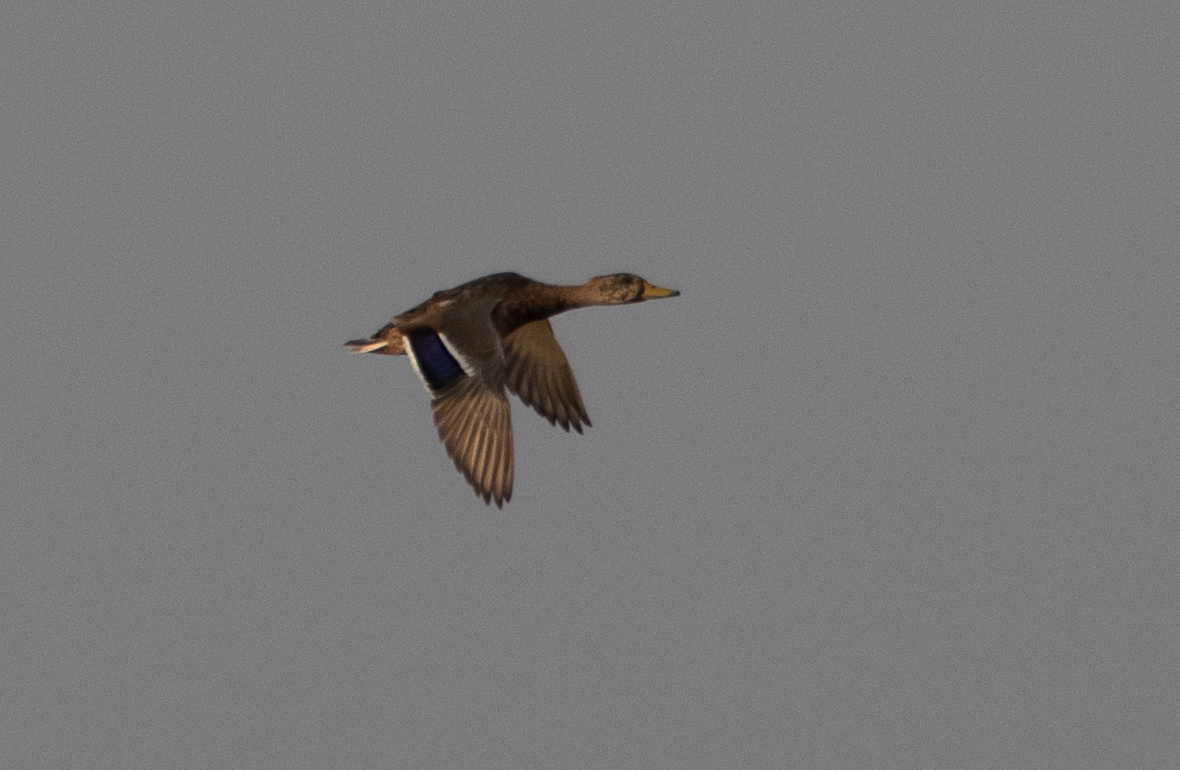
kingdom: Animalia
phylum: Chordata
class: Aves
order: Anseriformes
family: Anatidae
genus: Anas
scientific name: Anas platyrhynchos
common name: Mallard
